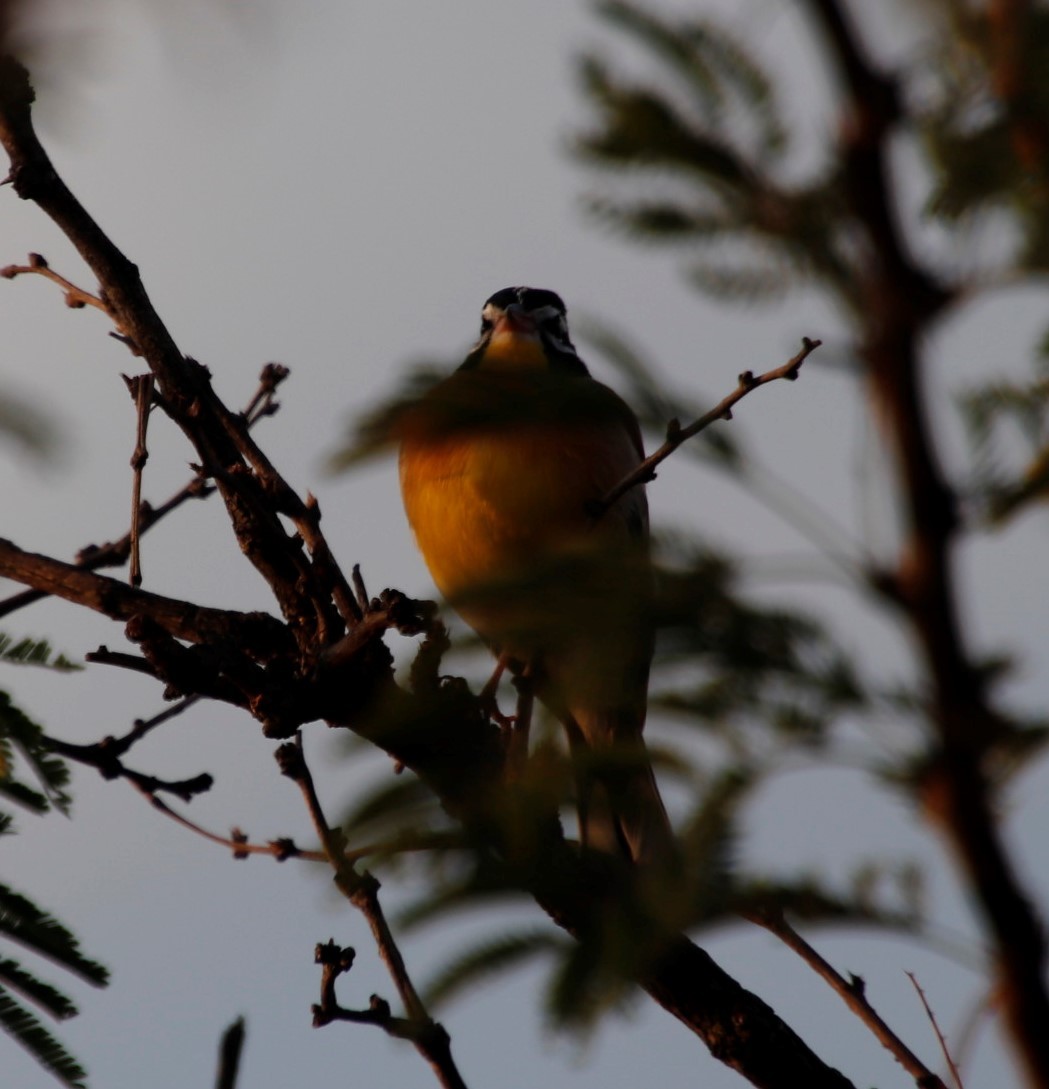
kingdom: Animalia
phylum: Chordata
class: Aves
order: Passeriformes
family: Emberizidae
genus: Emberiza
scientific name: Emberiza flaviventris
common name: Golden-breasted bunting
